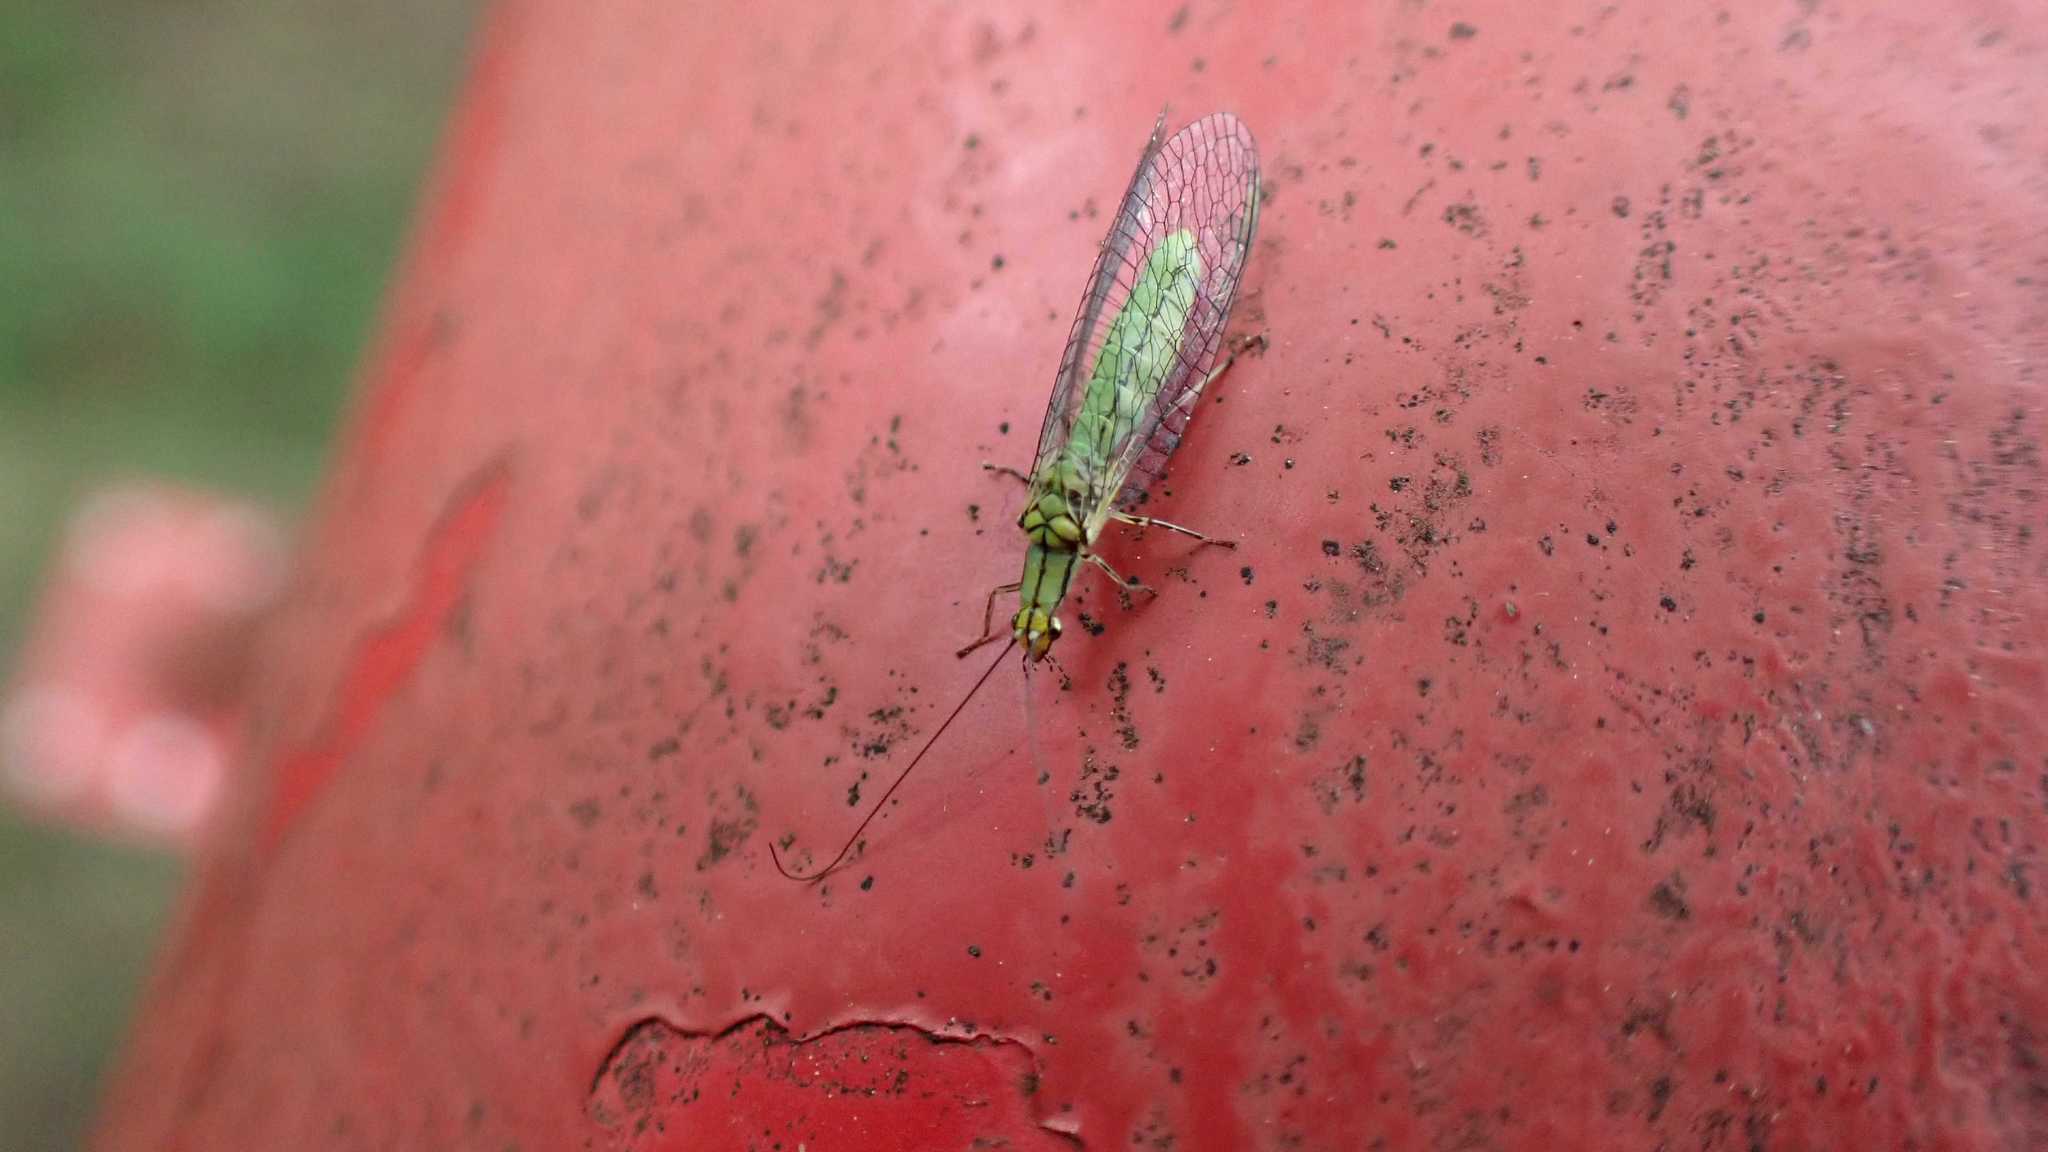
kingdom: Animalia
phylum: Arthropoda
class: Insecta
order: Neuroptera
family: Chrysopidae
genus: Hypochrysa
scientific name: Hypochrysa elegans
